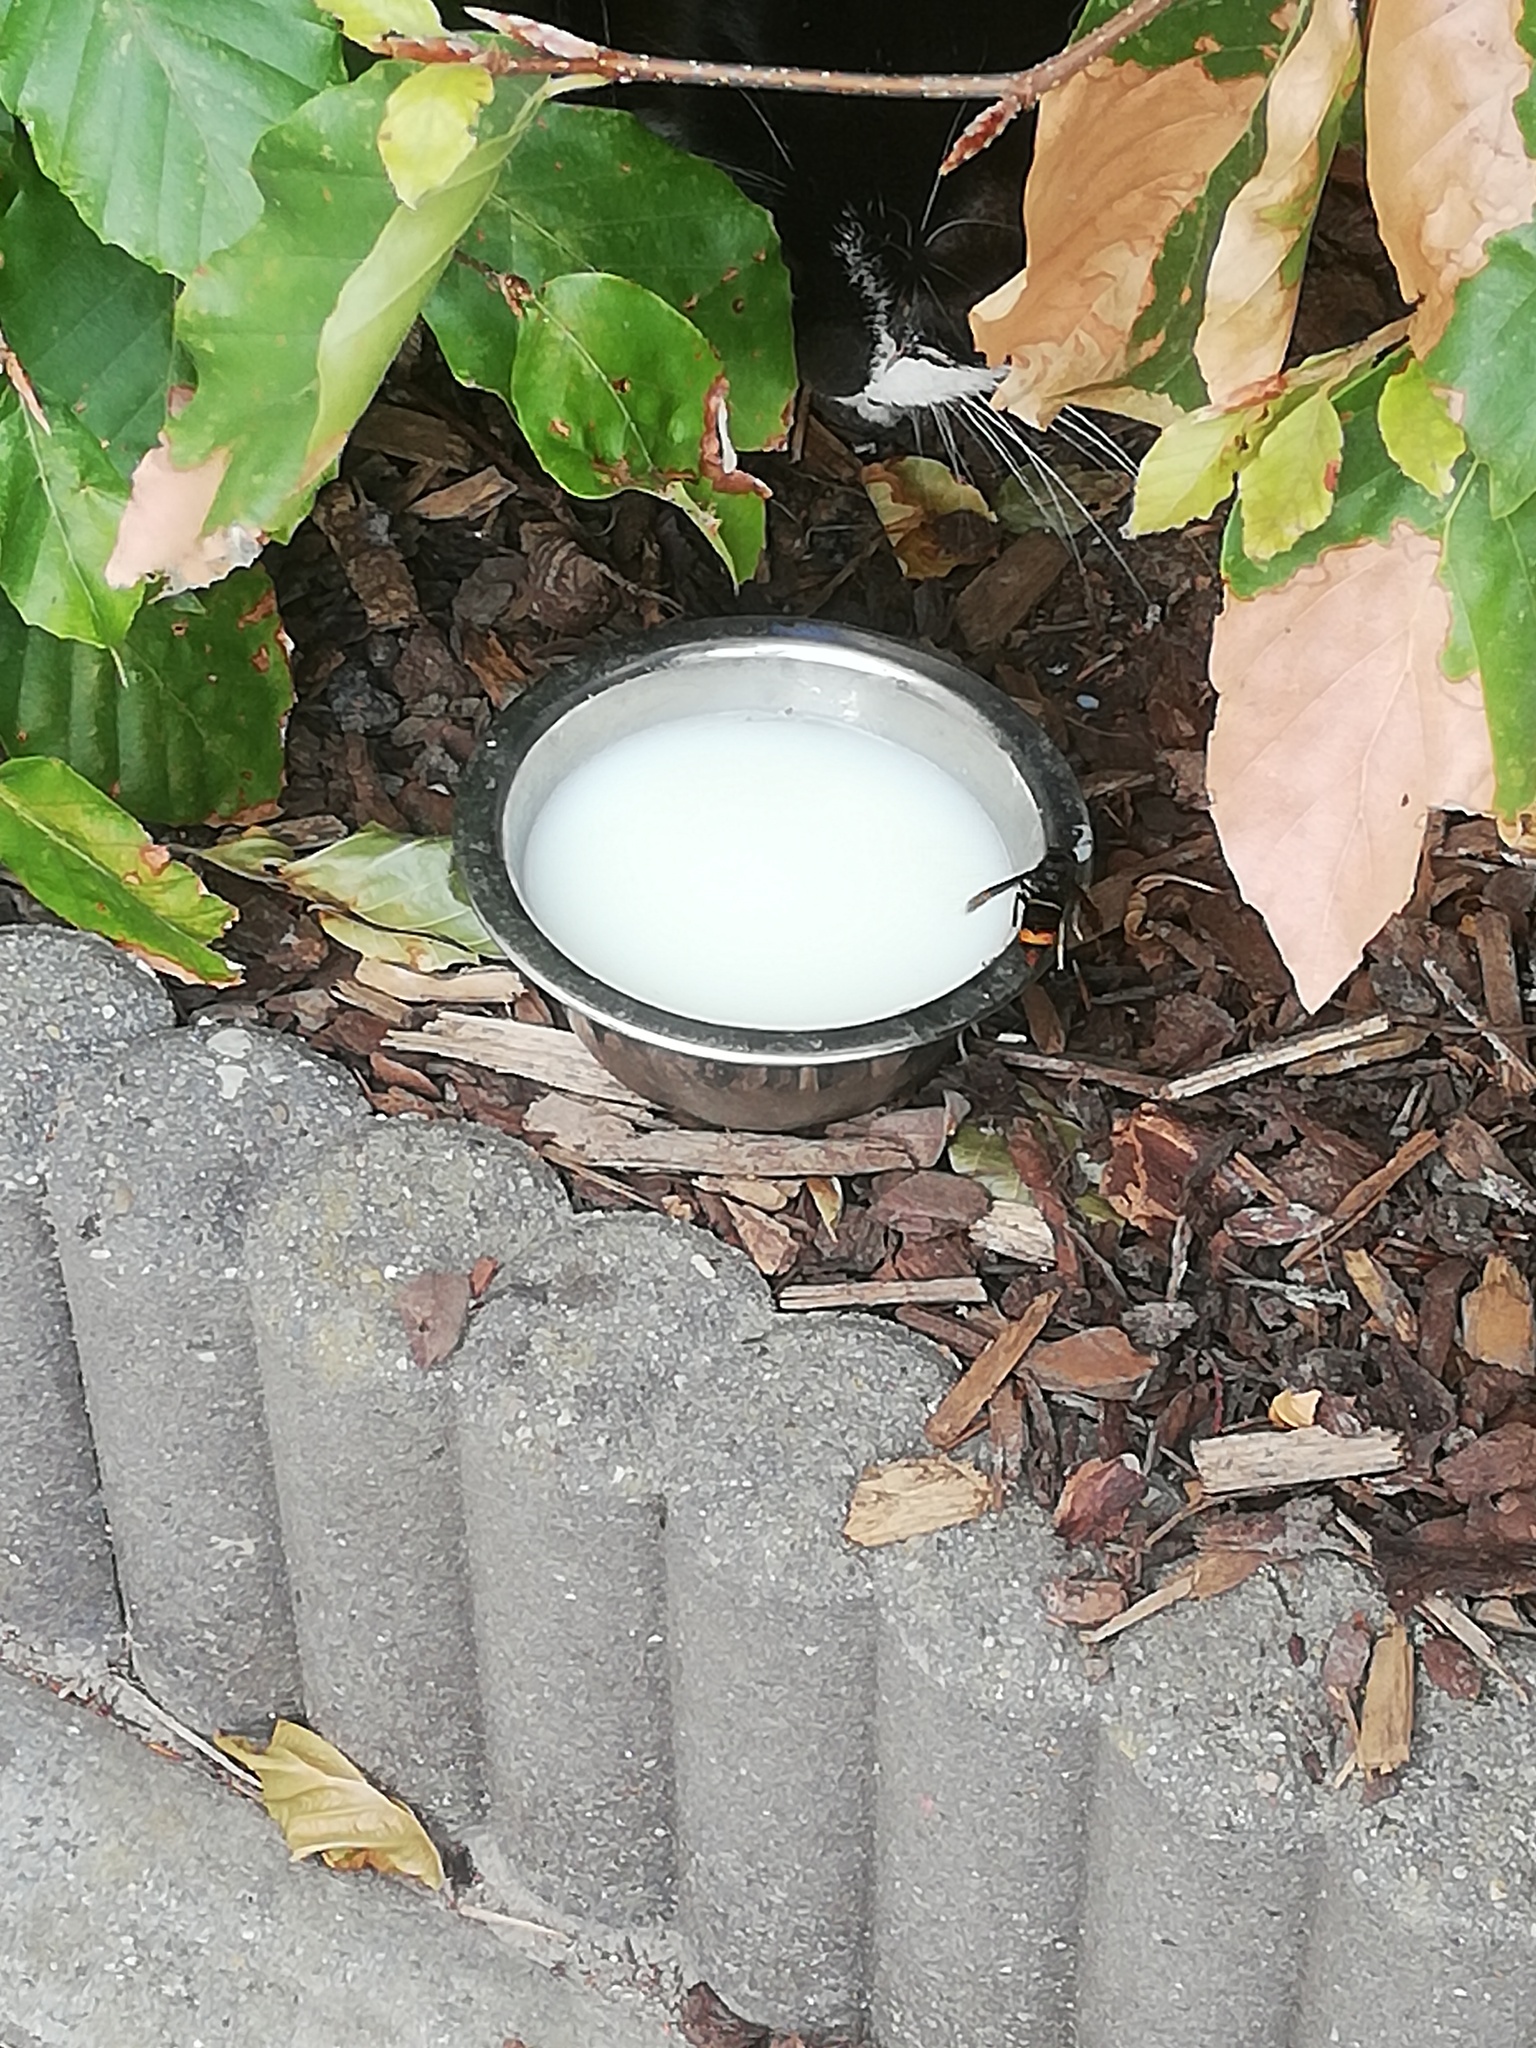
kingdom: Animalia
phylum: Arthropoda
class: Insecta
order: Hymenoptera
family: Vespidae
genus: Vespa
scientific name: Vespa velutina
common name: Asian hornet
